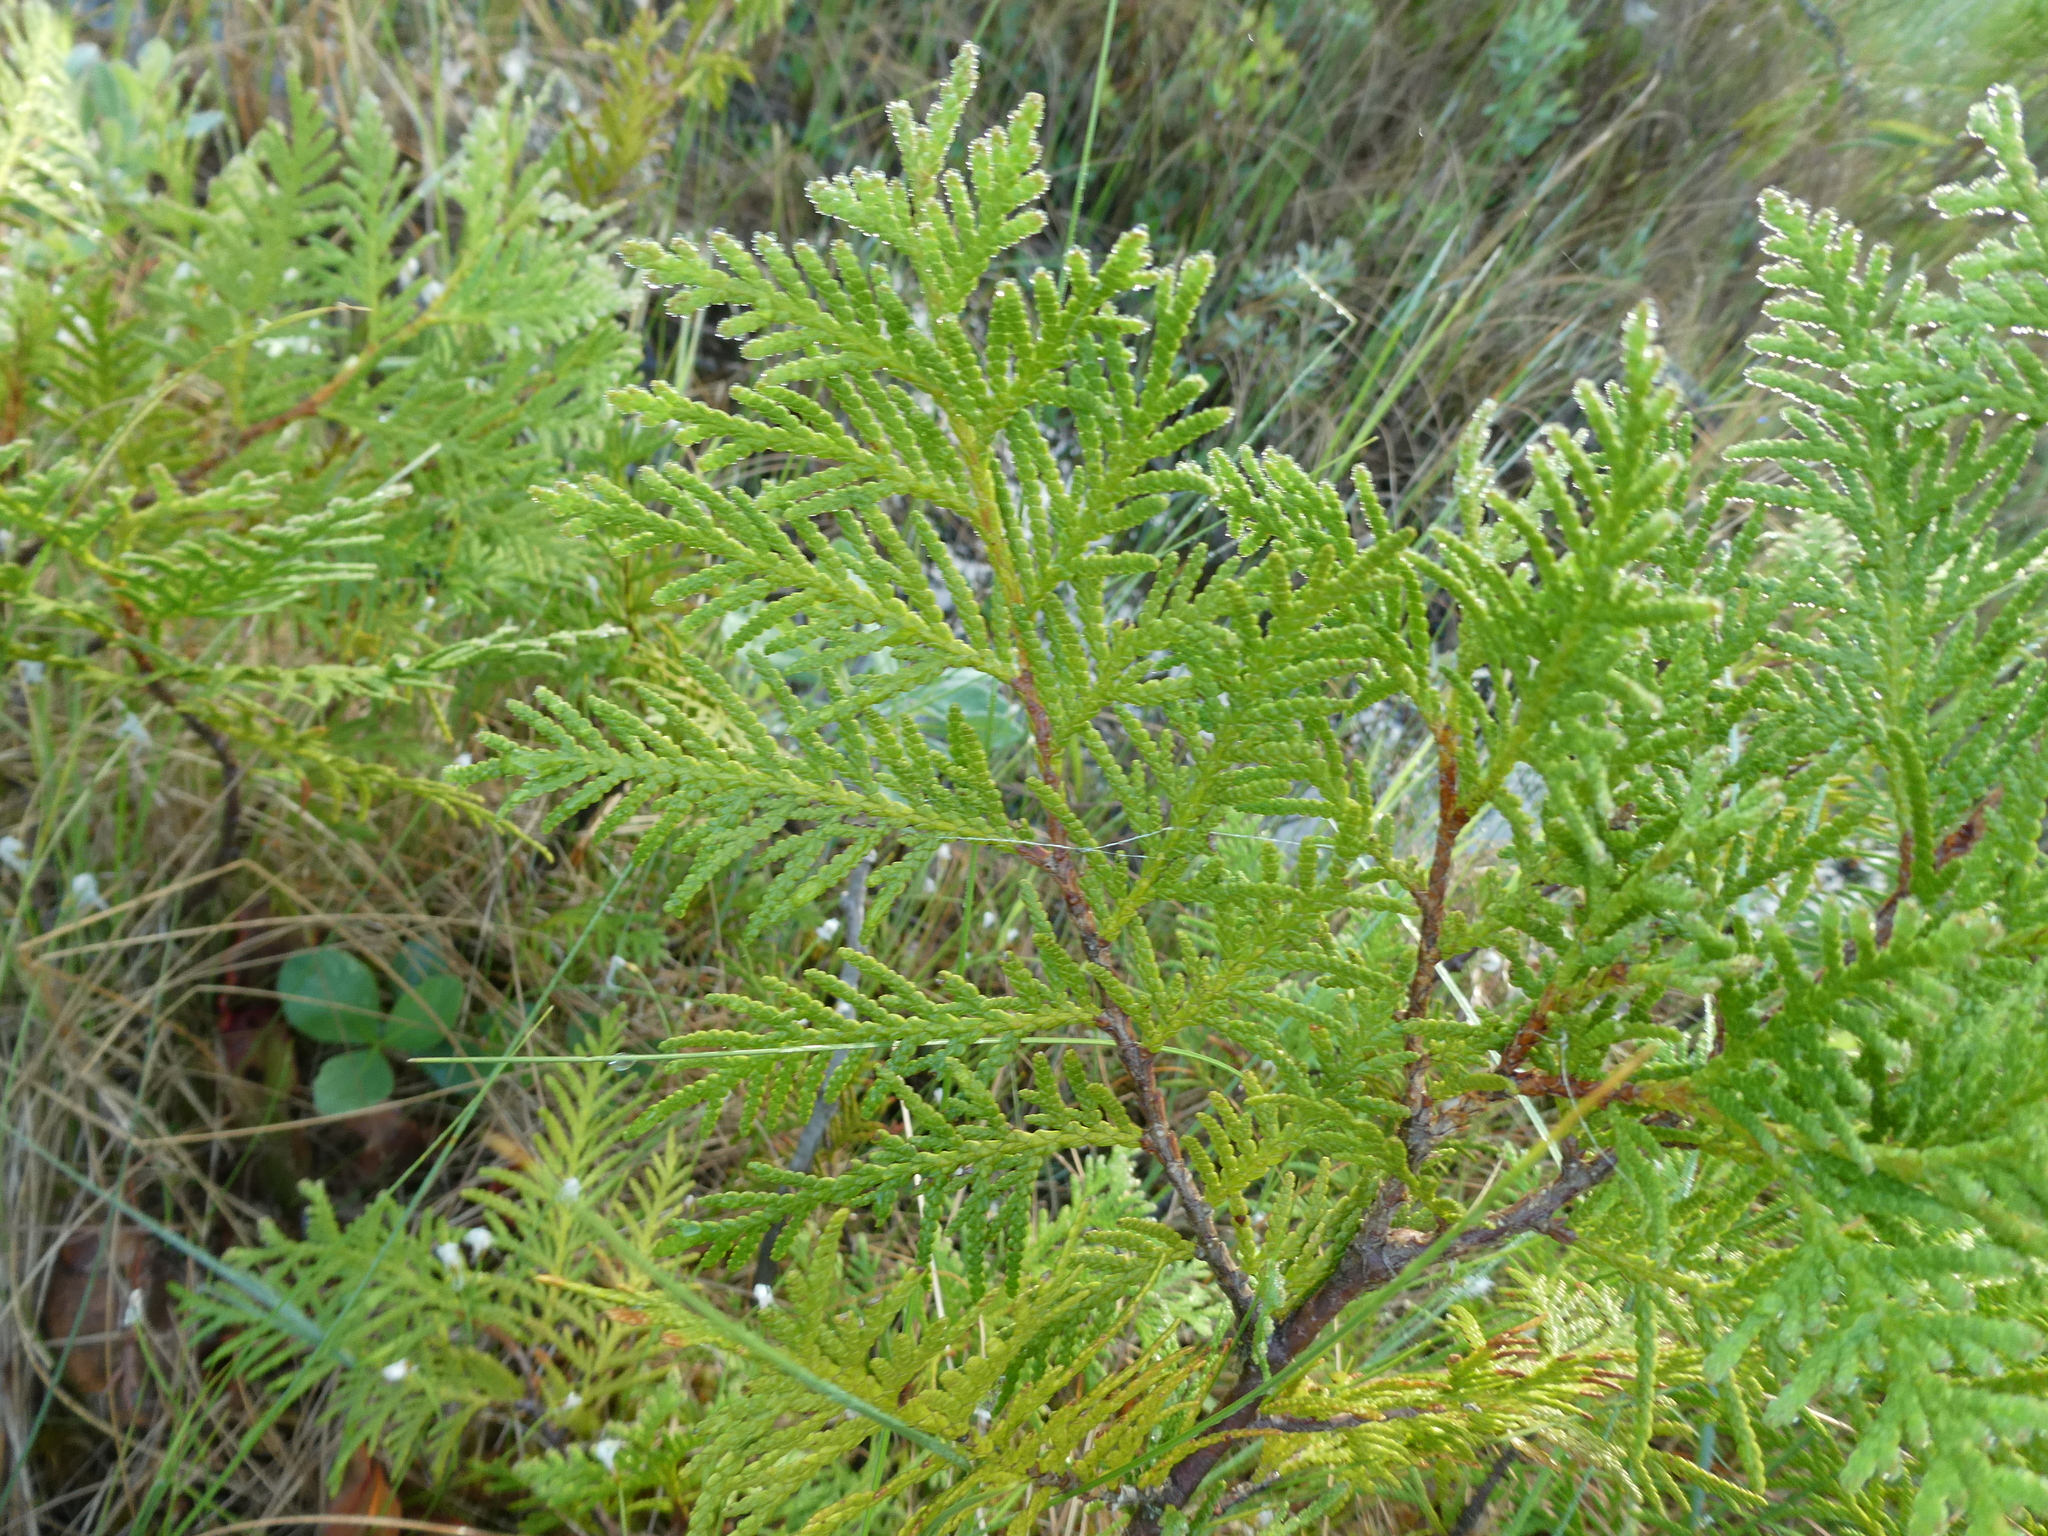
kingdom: Plantae
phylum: Tracheophyta
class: Pinopsida
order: Pinales
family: Cupressaceae
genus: Thuja
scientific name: Thuja occidentalis
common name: Northern white-cedar
